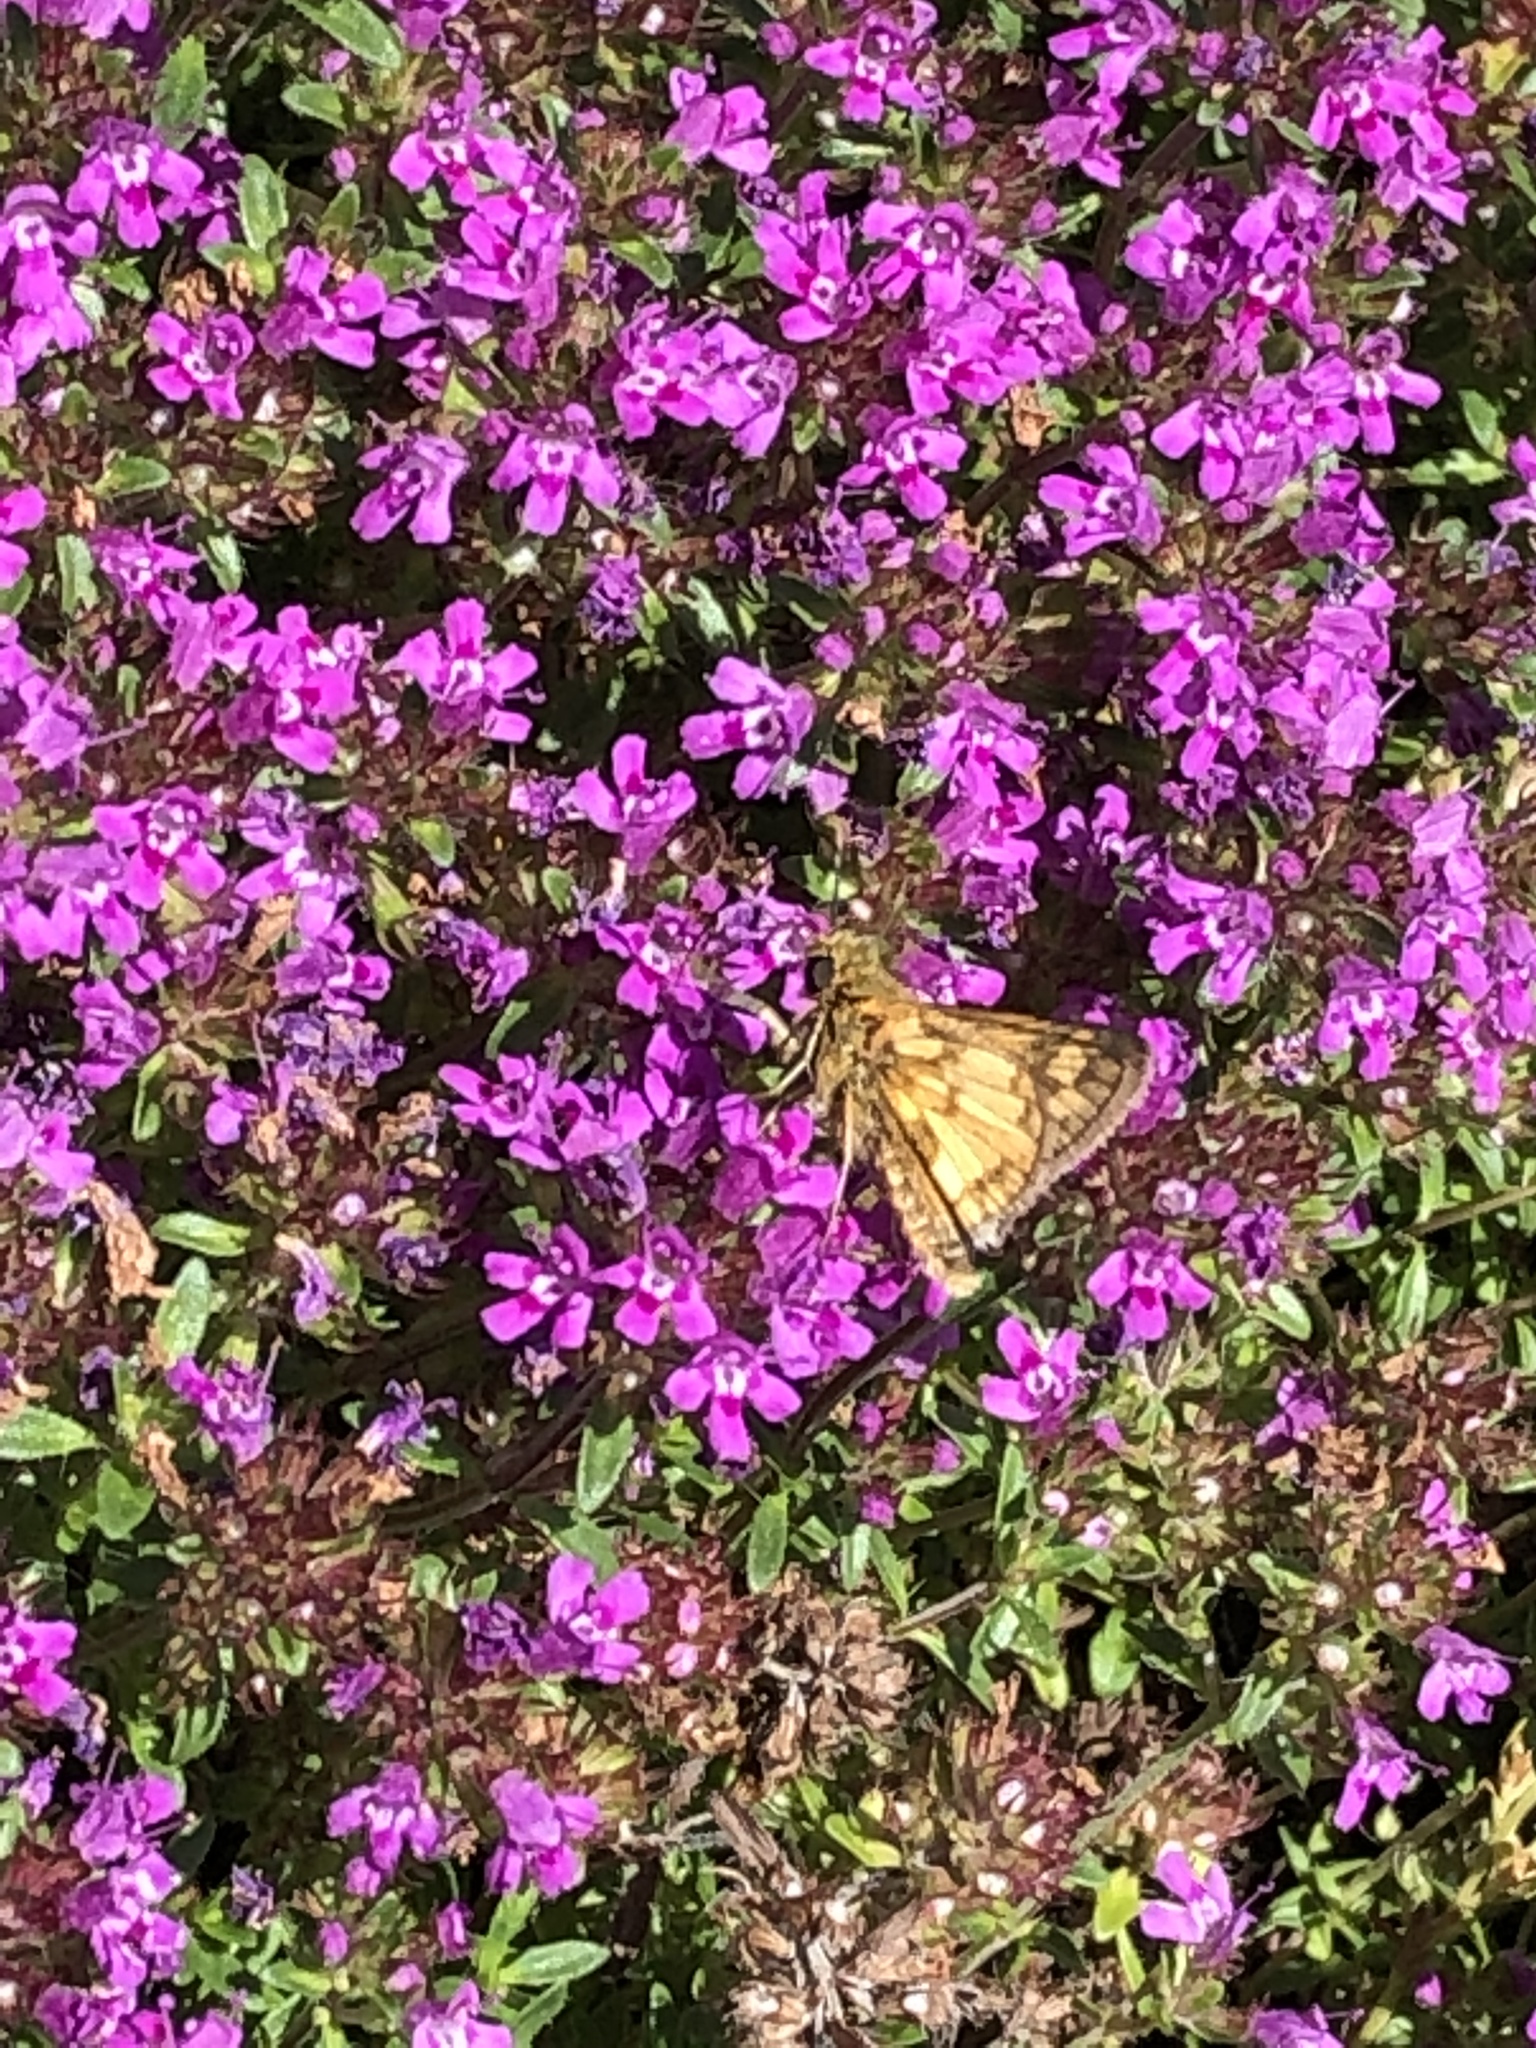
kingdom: Animalia
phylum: Arthropoda
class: Insecta
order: Lepidoptera
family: Hesperiidae
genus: Polites
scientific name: Polites coras
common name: Peck's skipper
